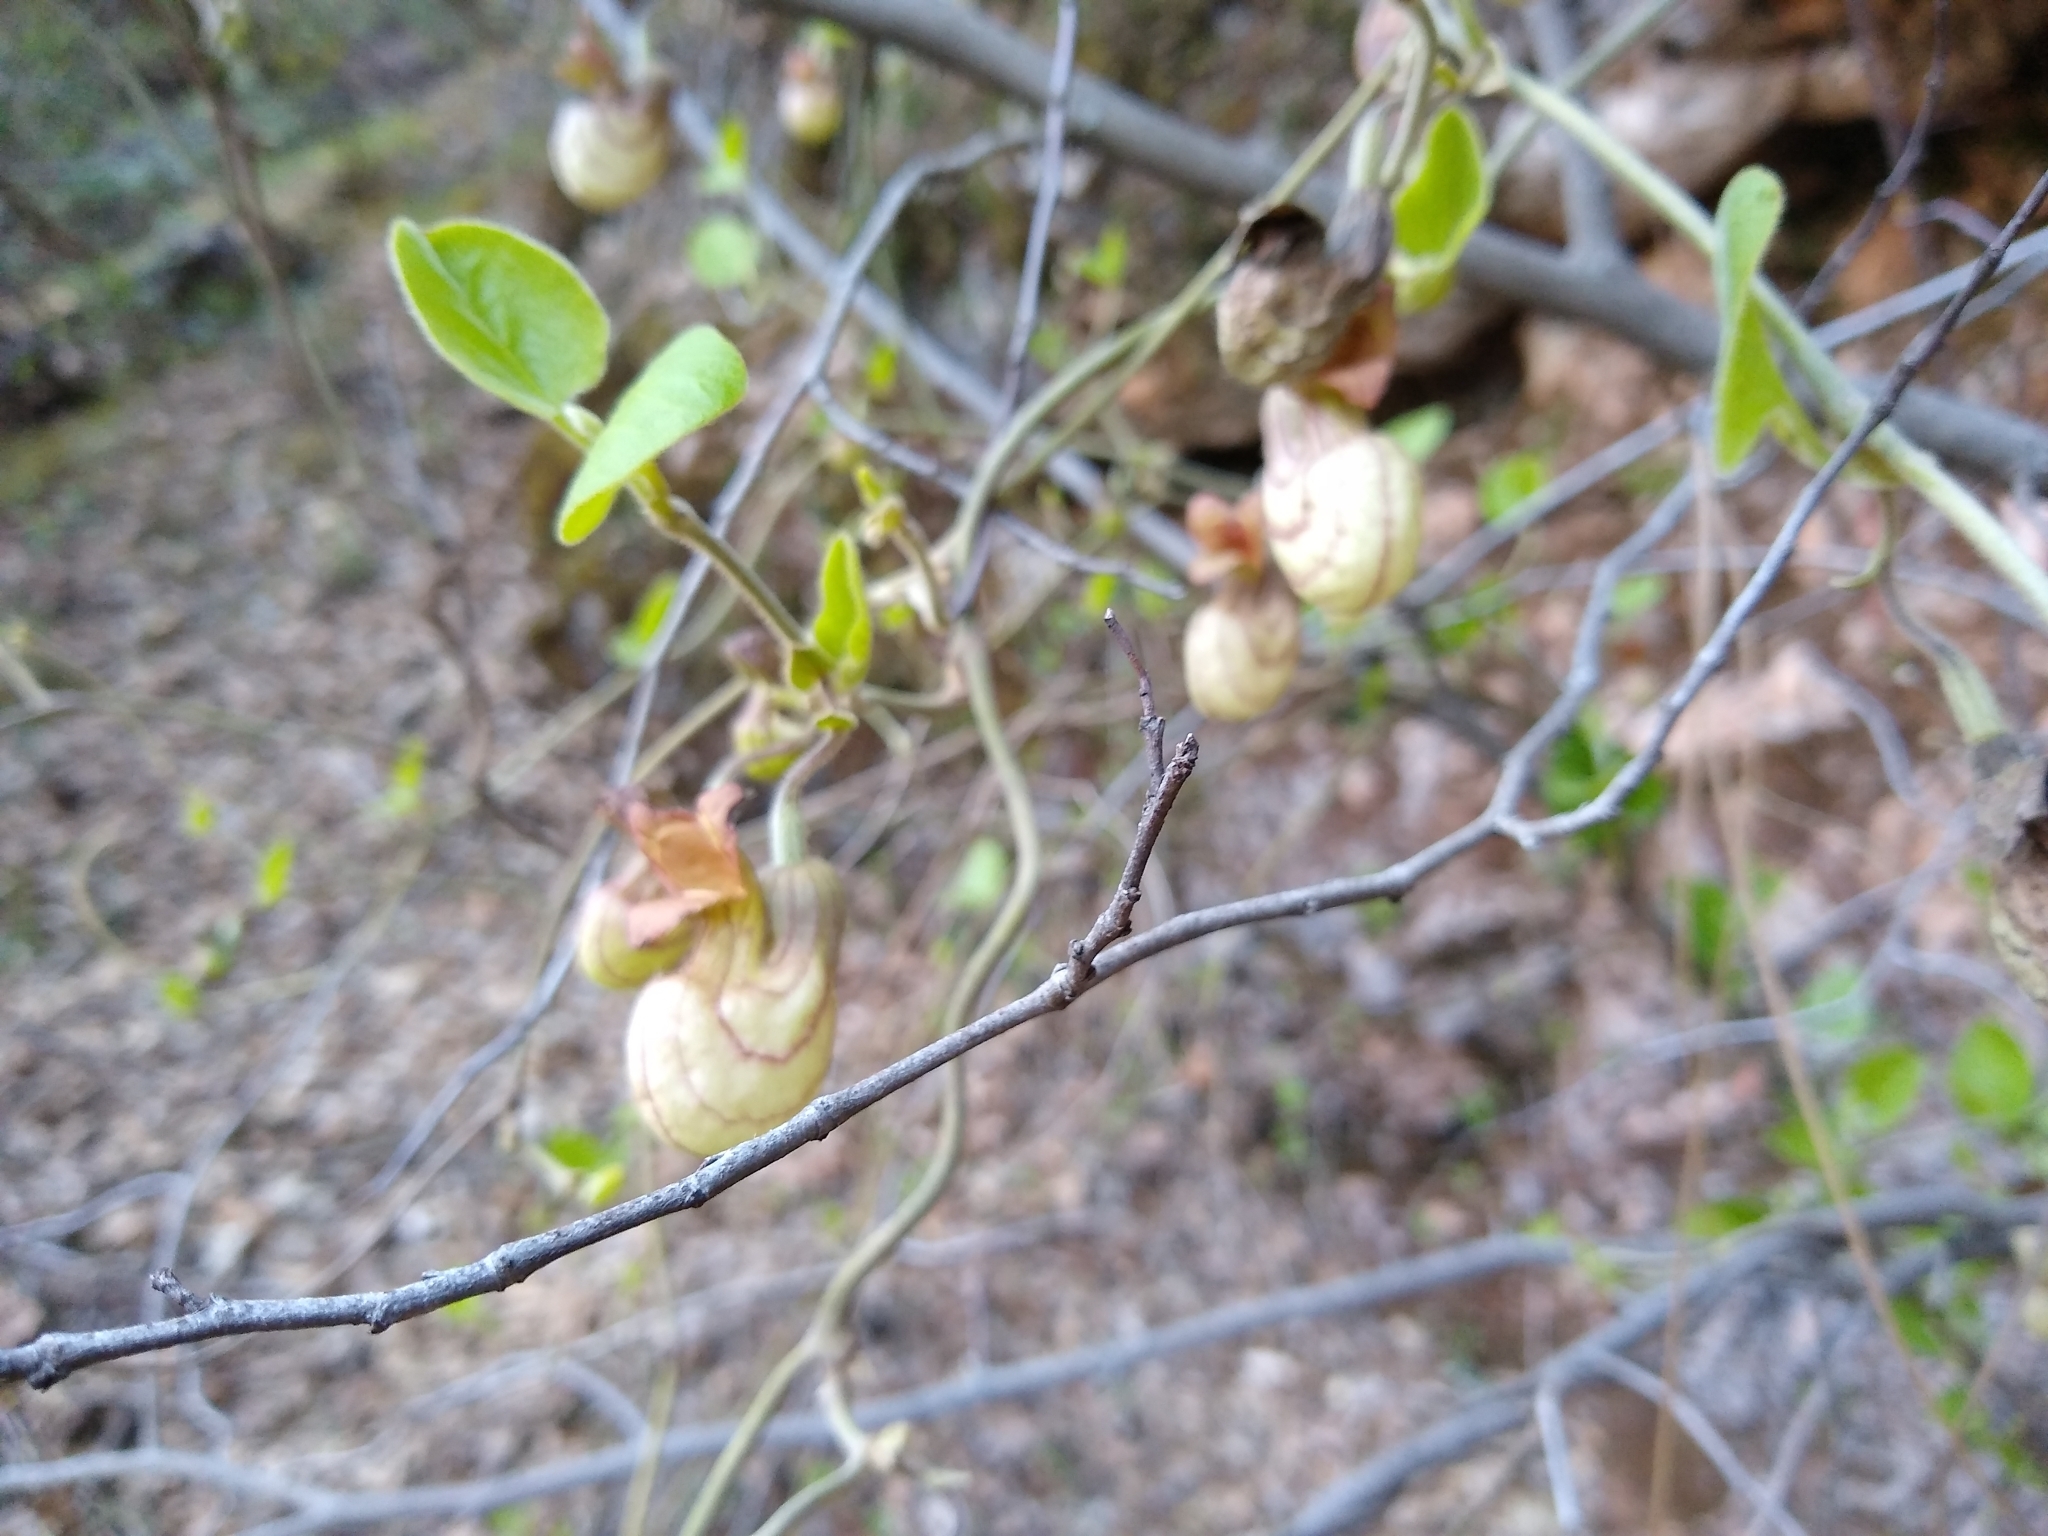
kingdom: Plantae
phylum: Tracheophyta
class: Magnoliopsida
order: Piperales
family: Aristolochiaceae
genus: Isotrema
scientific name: Isotrema californicum
